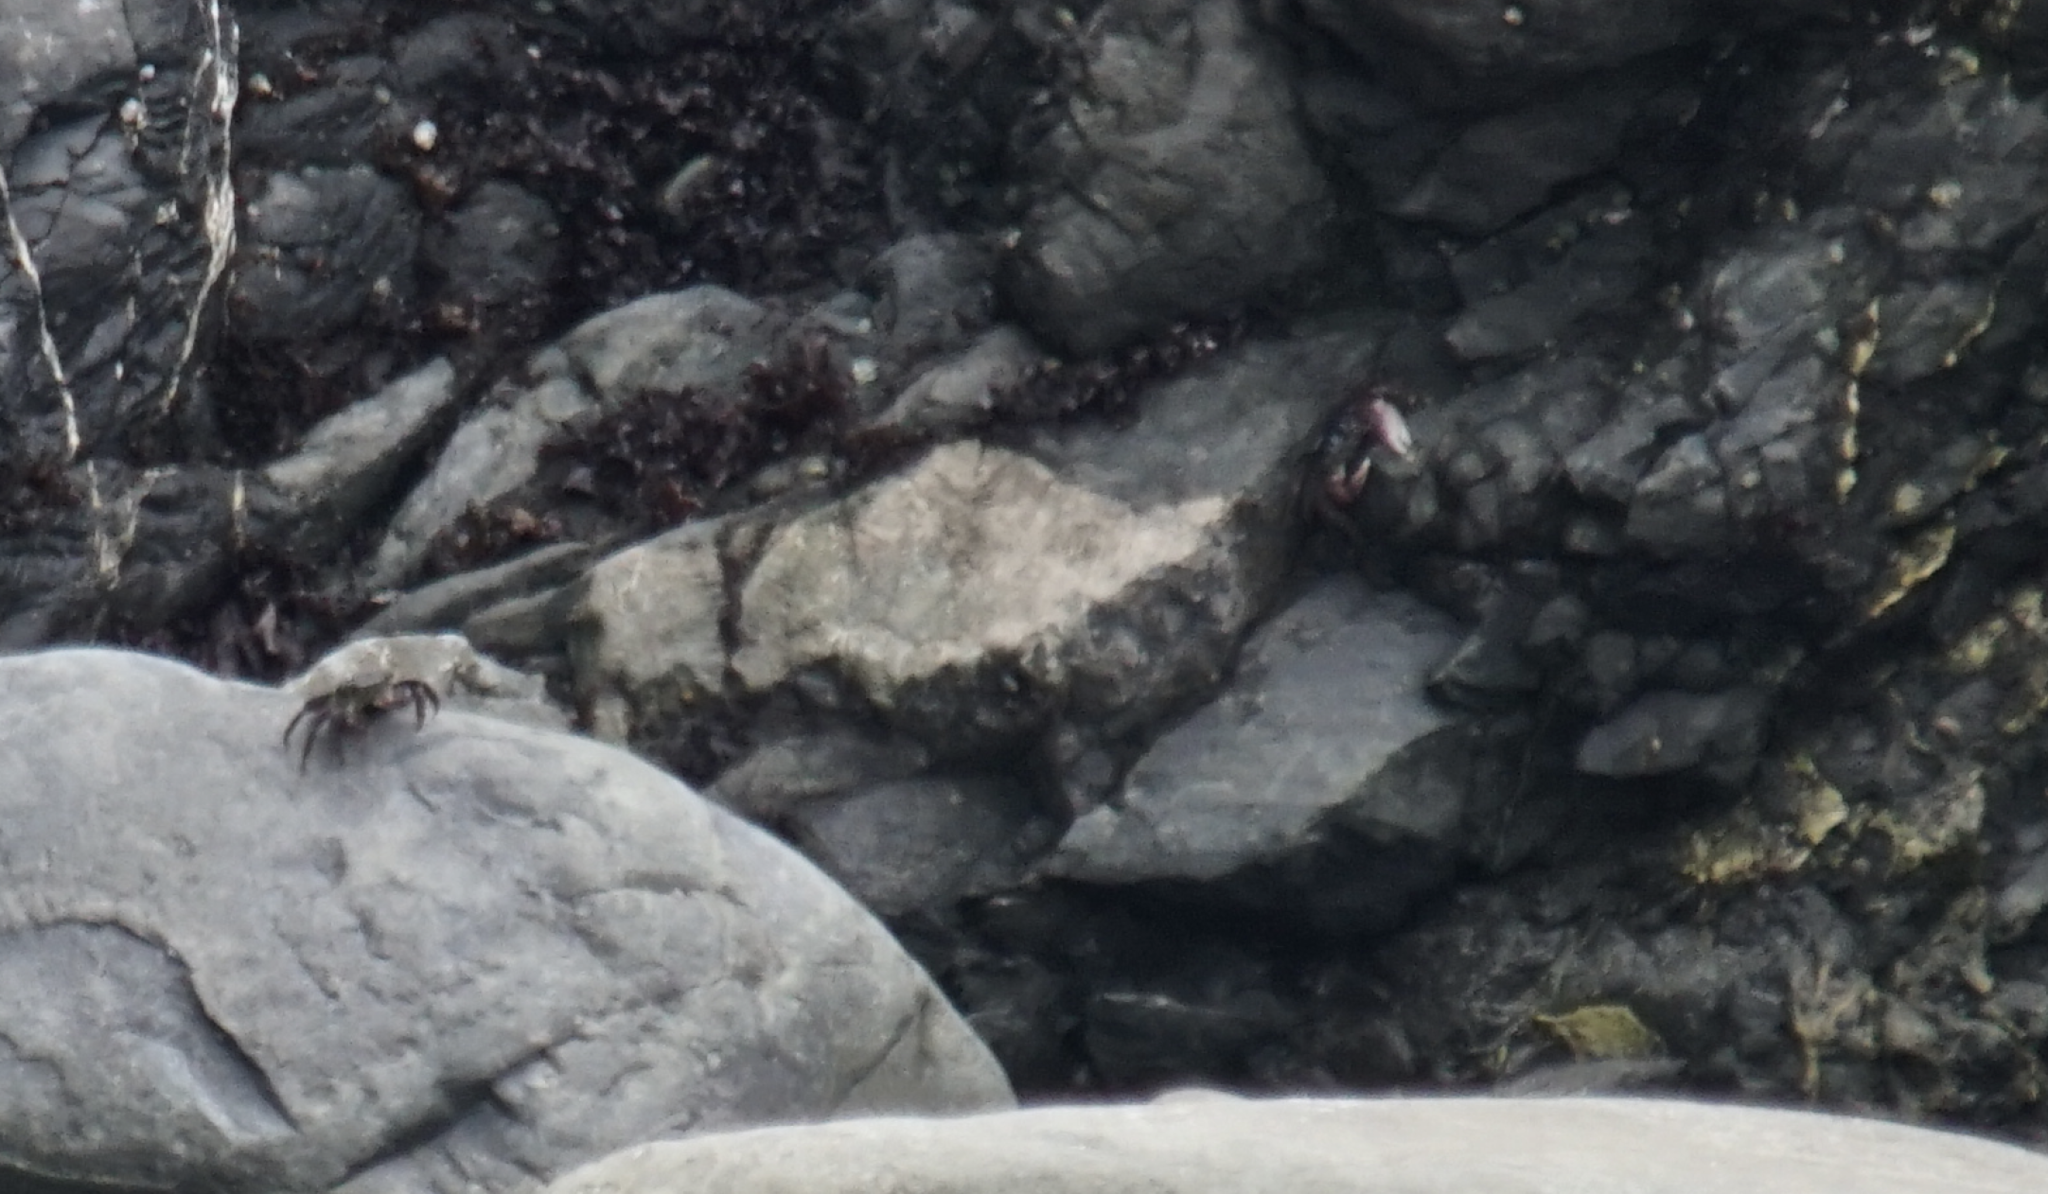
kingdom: Animalia
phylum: Arthropoda
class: Malacostraca
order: Decapoda
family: Grapsidae
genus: Pachygrapsus
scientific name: Pachygrapsus crassipes
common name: Striped shore crab
